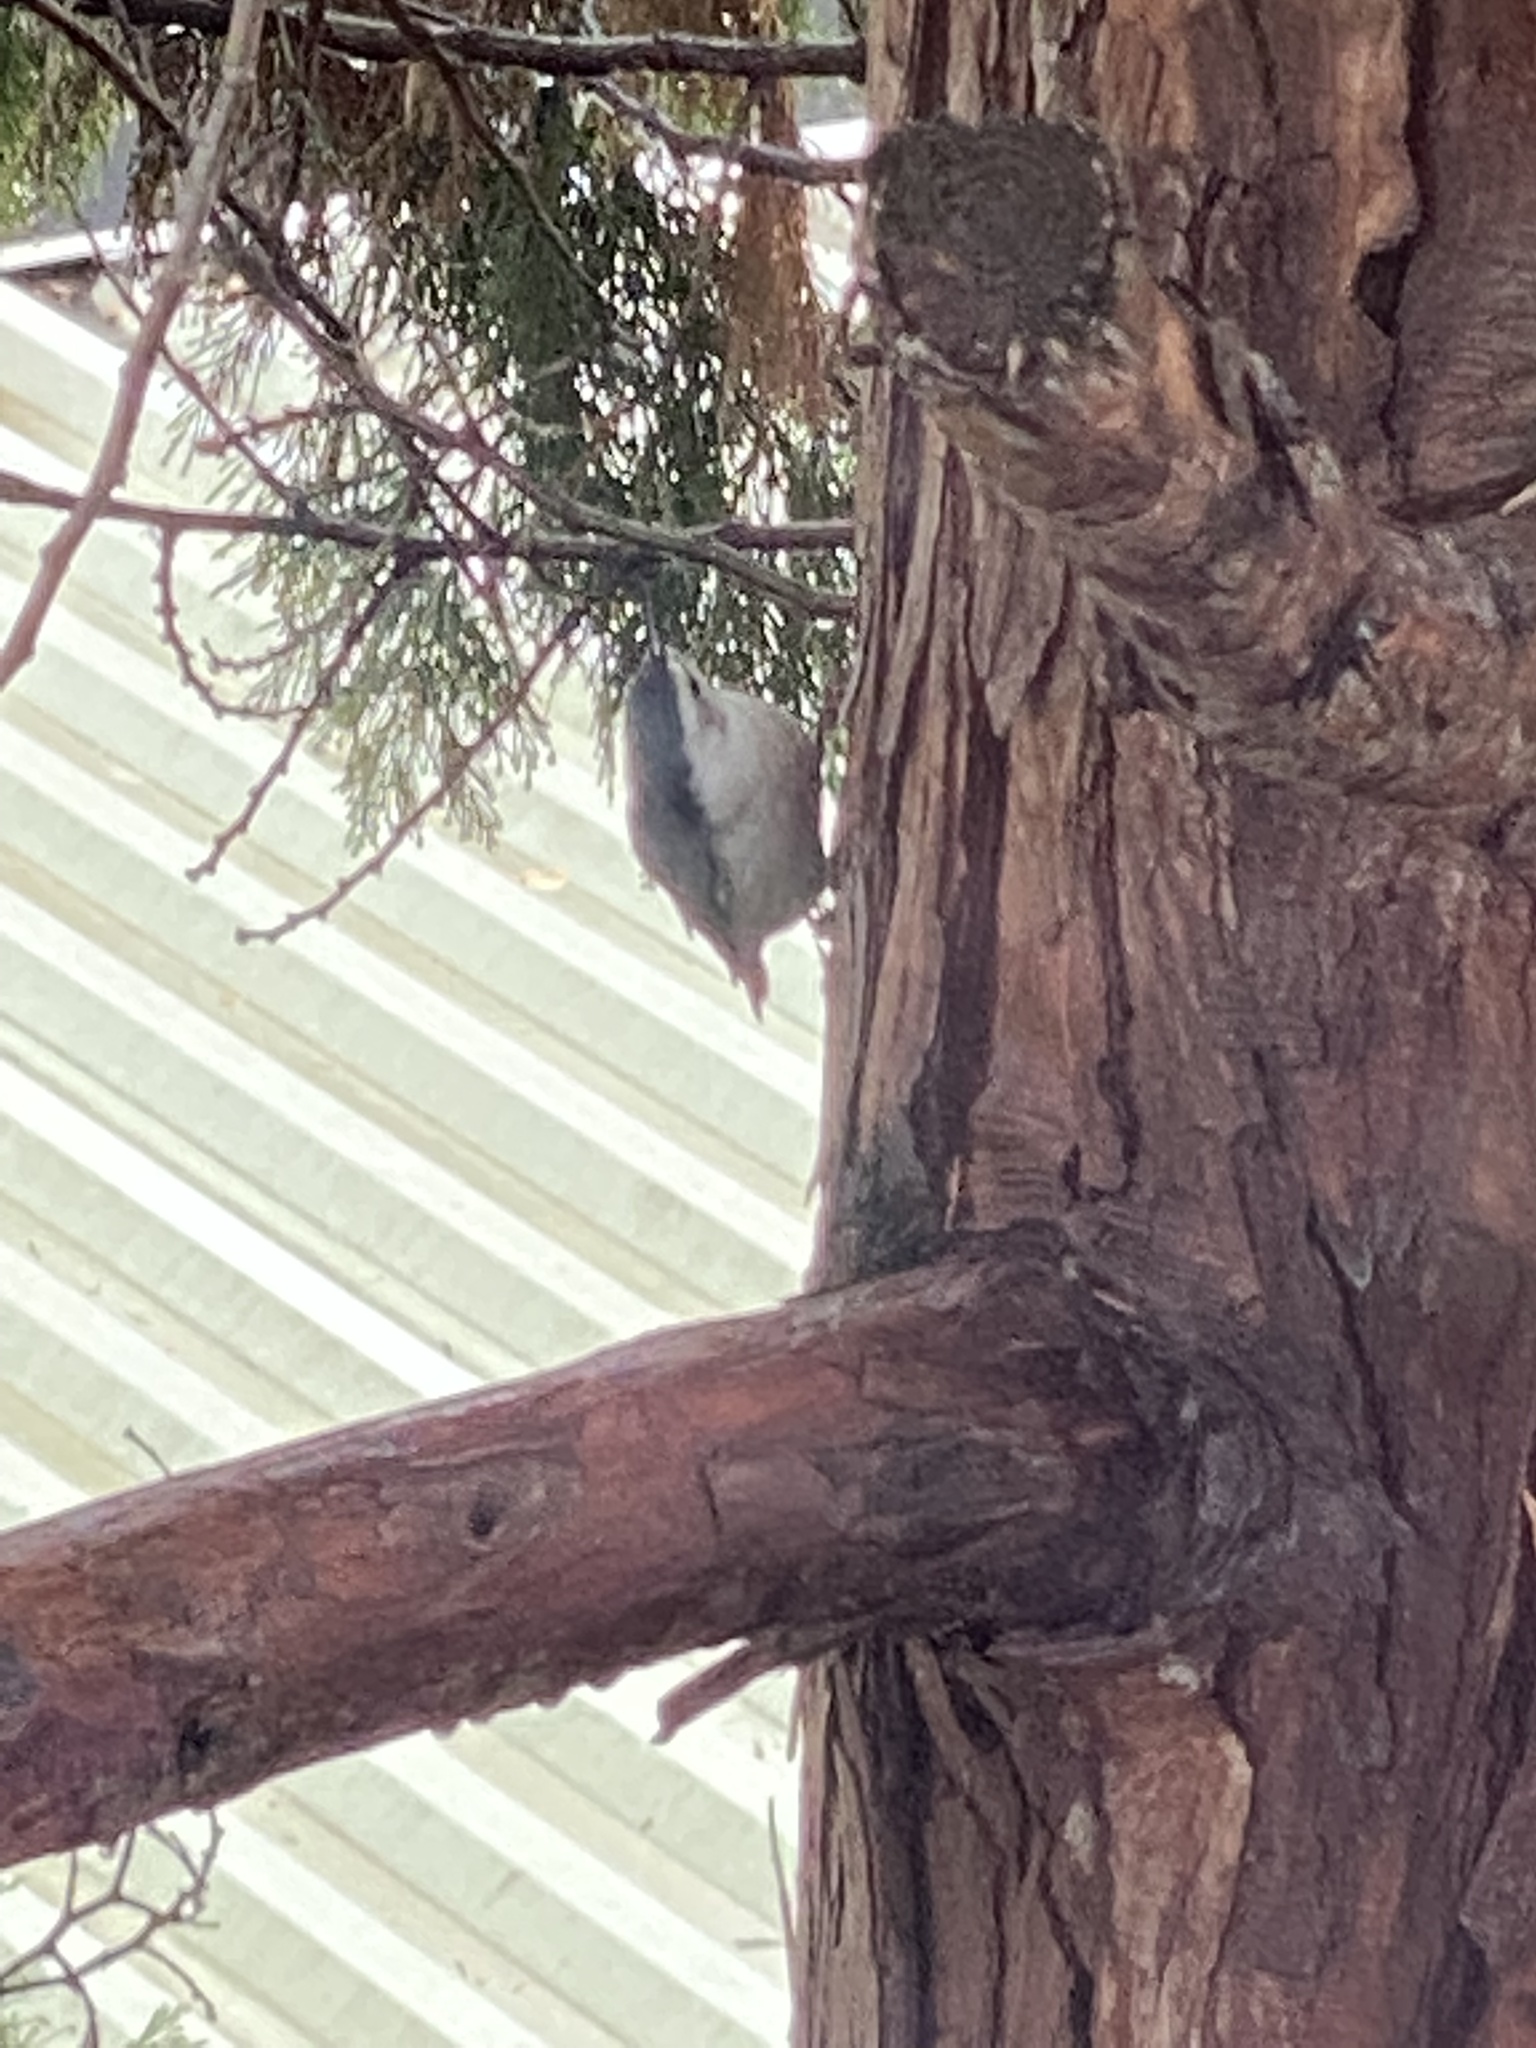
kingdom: Animalia
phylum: Chordata
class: Aves
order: Passeriformes
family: Sittidae
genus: Sitta
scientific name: Sitta carolinensis
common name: White-breasted nuthatch
